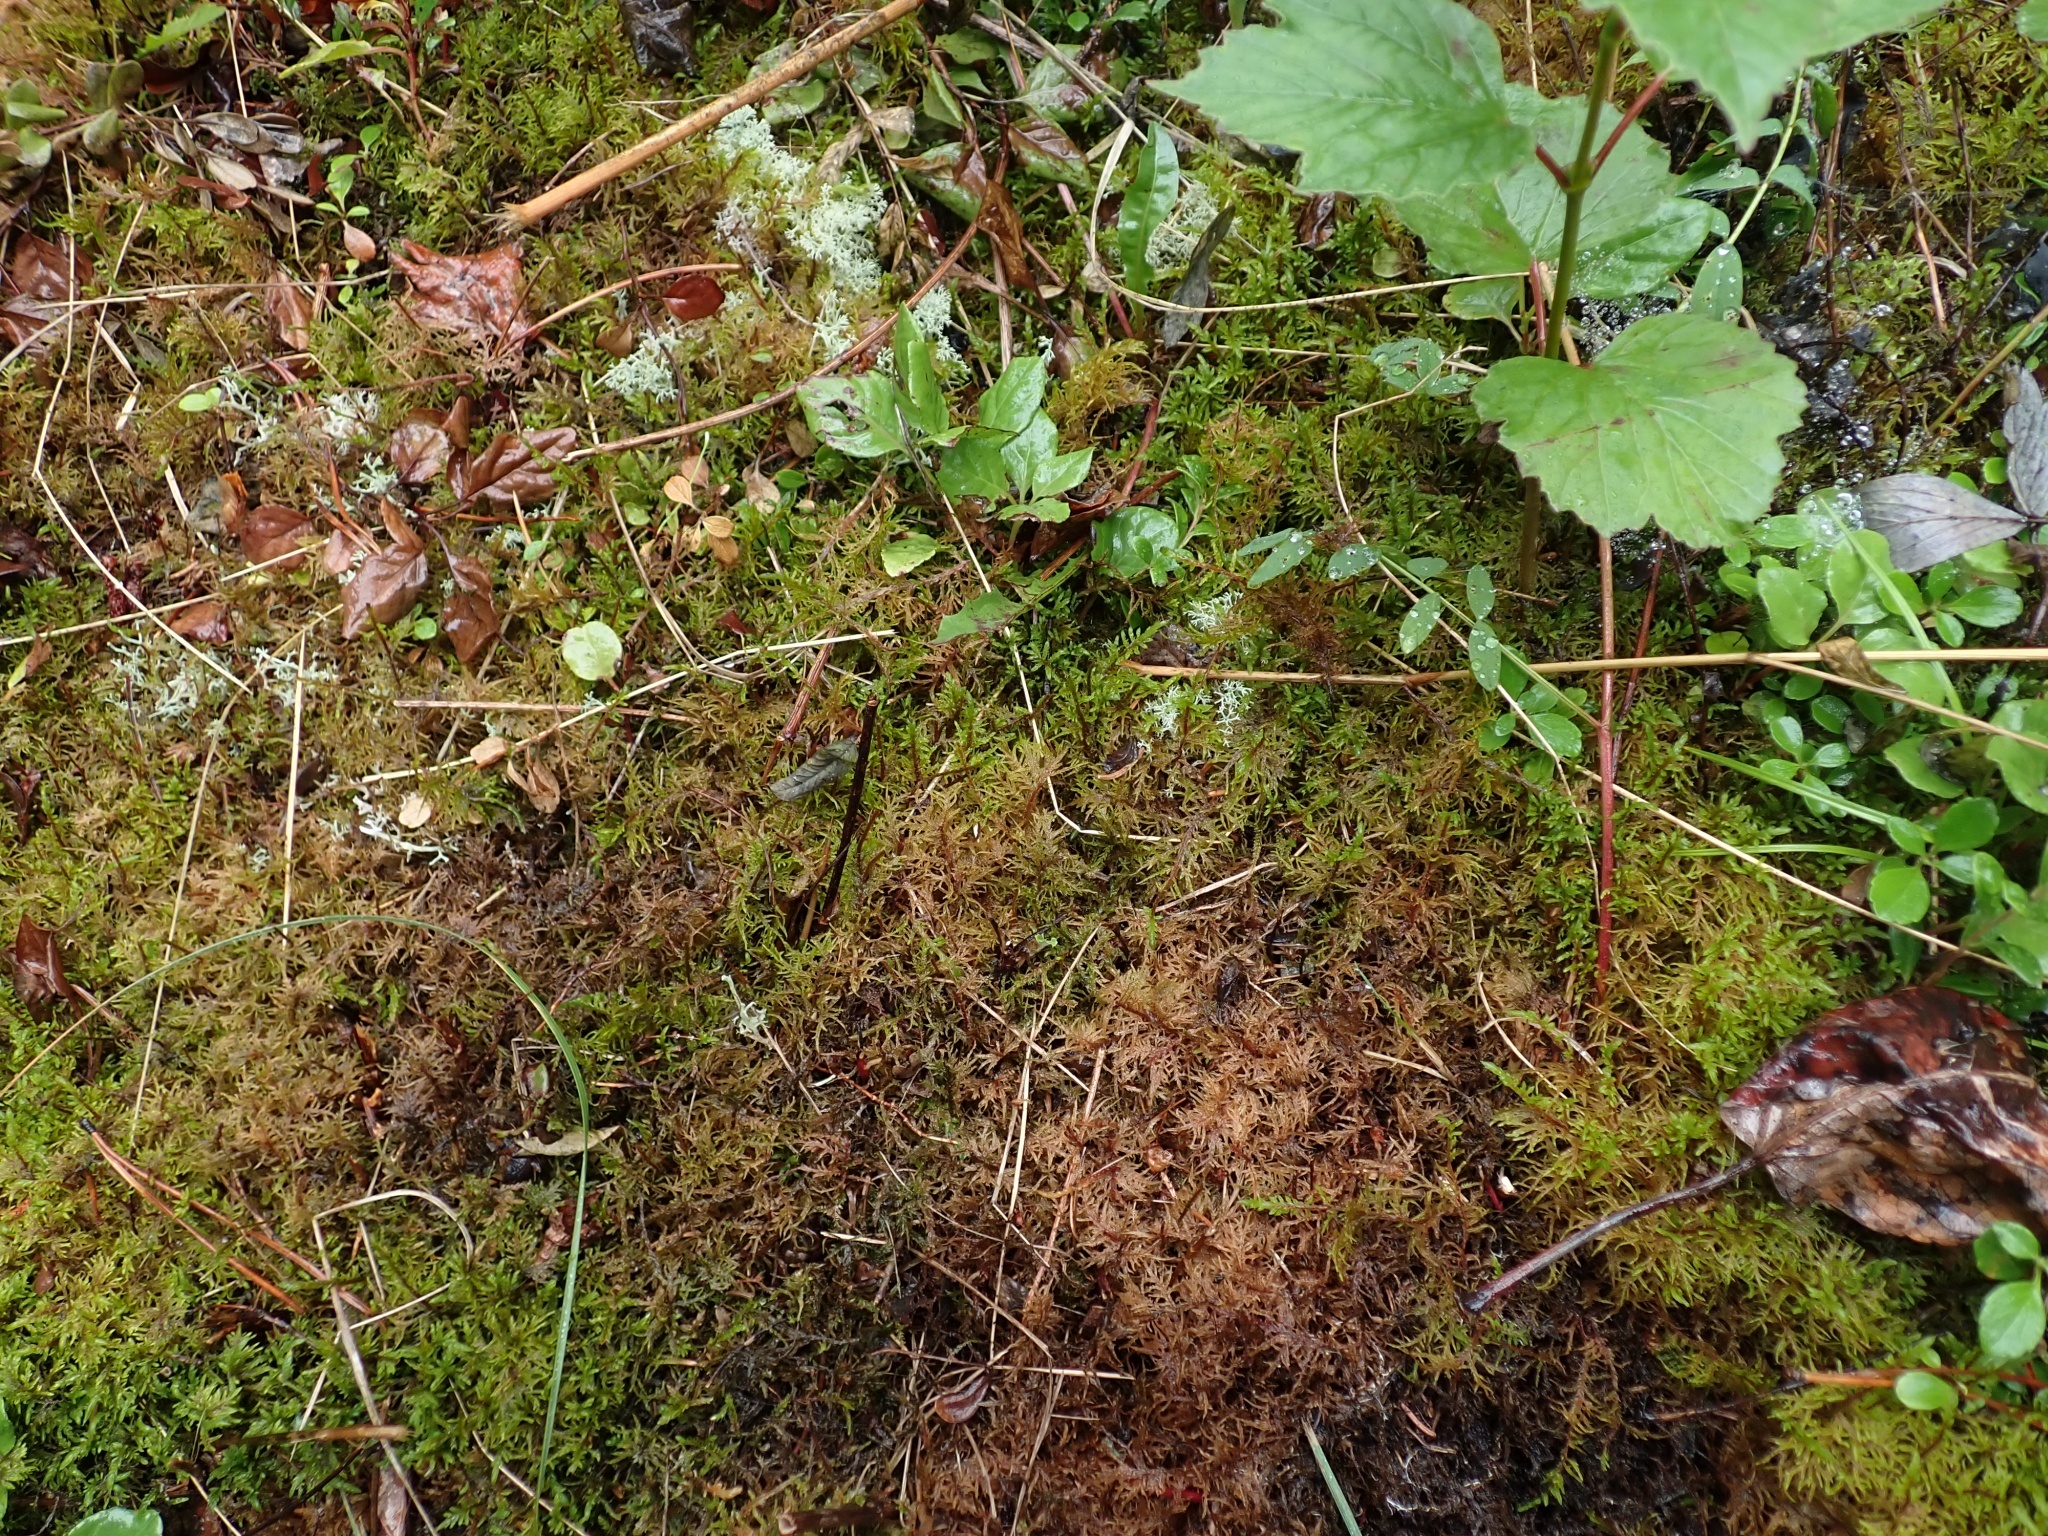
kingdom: Plantae
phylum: Bryophyta
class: Bryopsida
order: Hypnales
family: Hylocomiaceae
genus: Hylocomium
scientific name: Hylocomium splendens
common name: Stairstep moss
